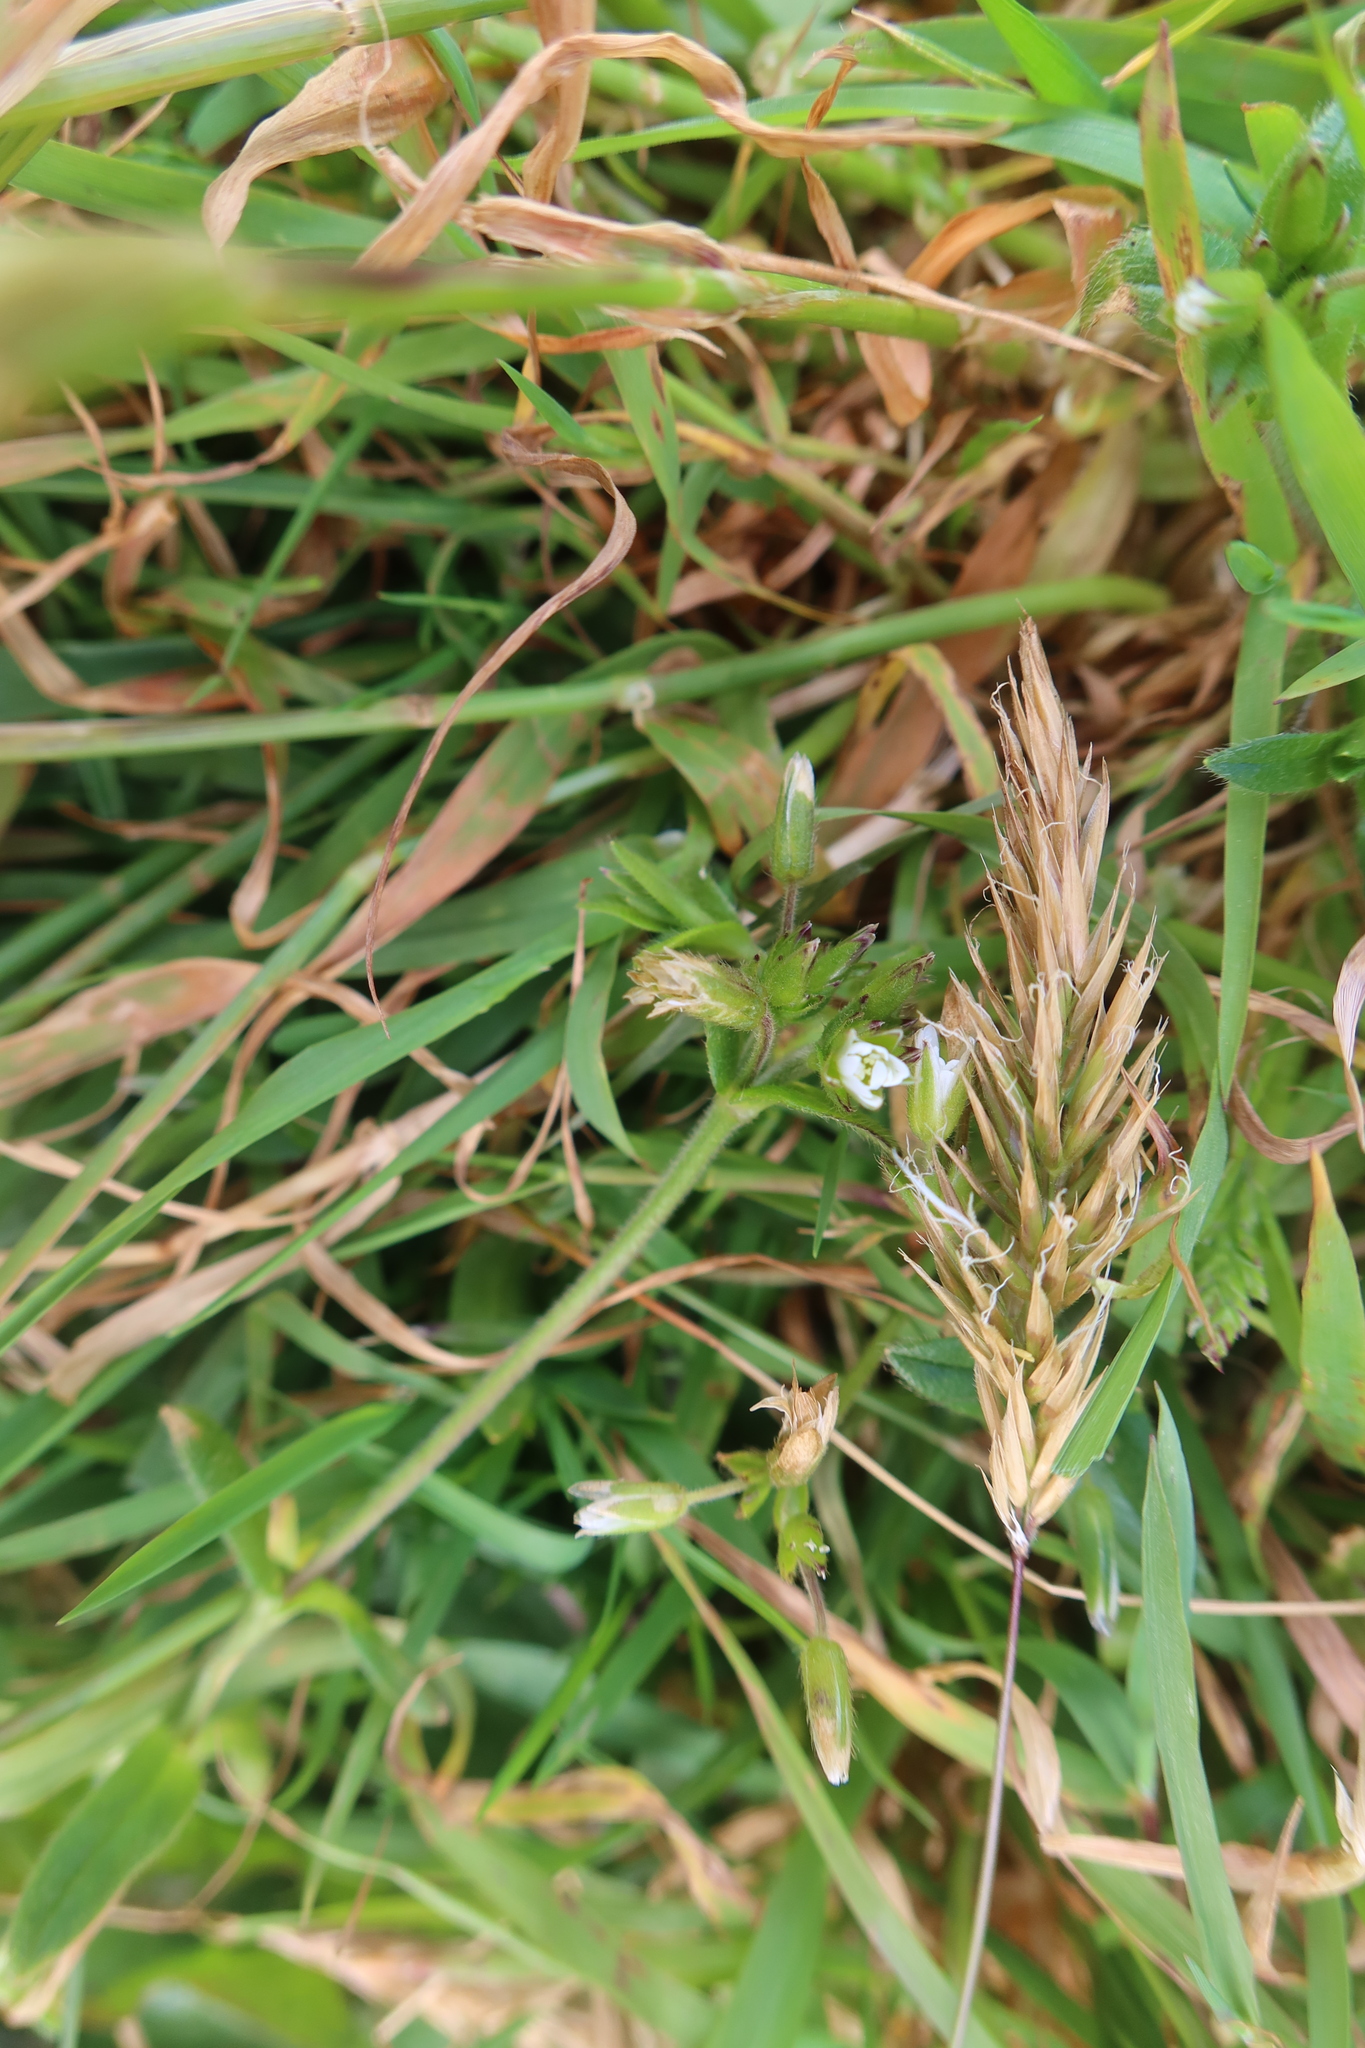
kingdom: Plantae
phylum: Tracheophyta
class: Magnoliopsida
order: Caryophyllales
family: Caryophyllaceae
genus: Cerastium
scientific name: Cerastium fontanum
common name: Common mouse-ear
